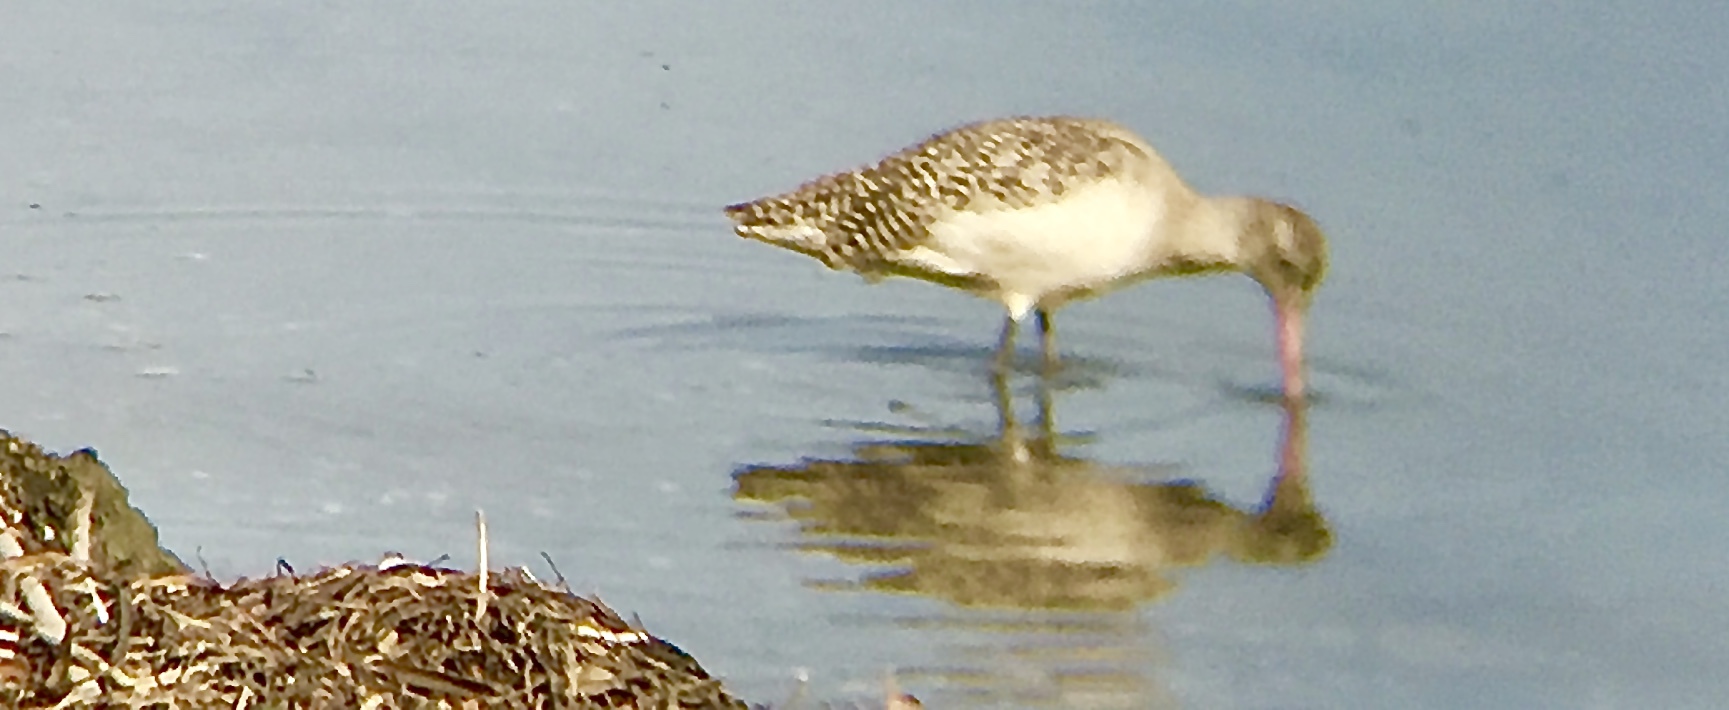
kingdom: Animalia
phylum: Chordata
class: Aves
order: Charadriiformes
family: Scolopacidae
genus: Limosa
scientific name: Limosa fedoa
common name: Marbled godwit
